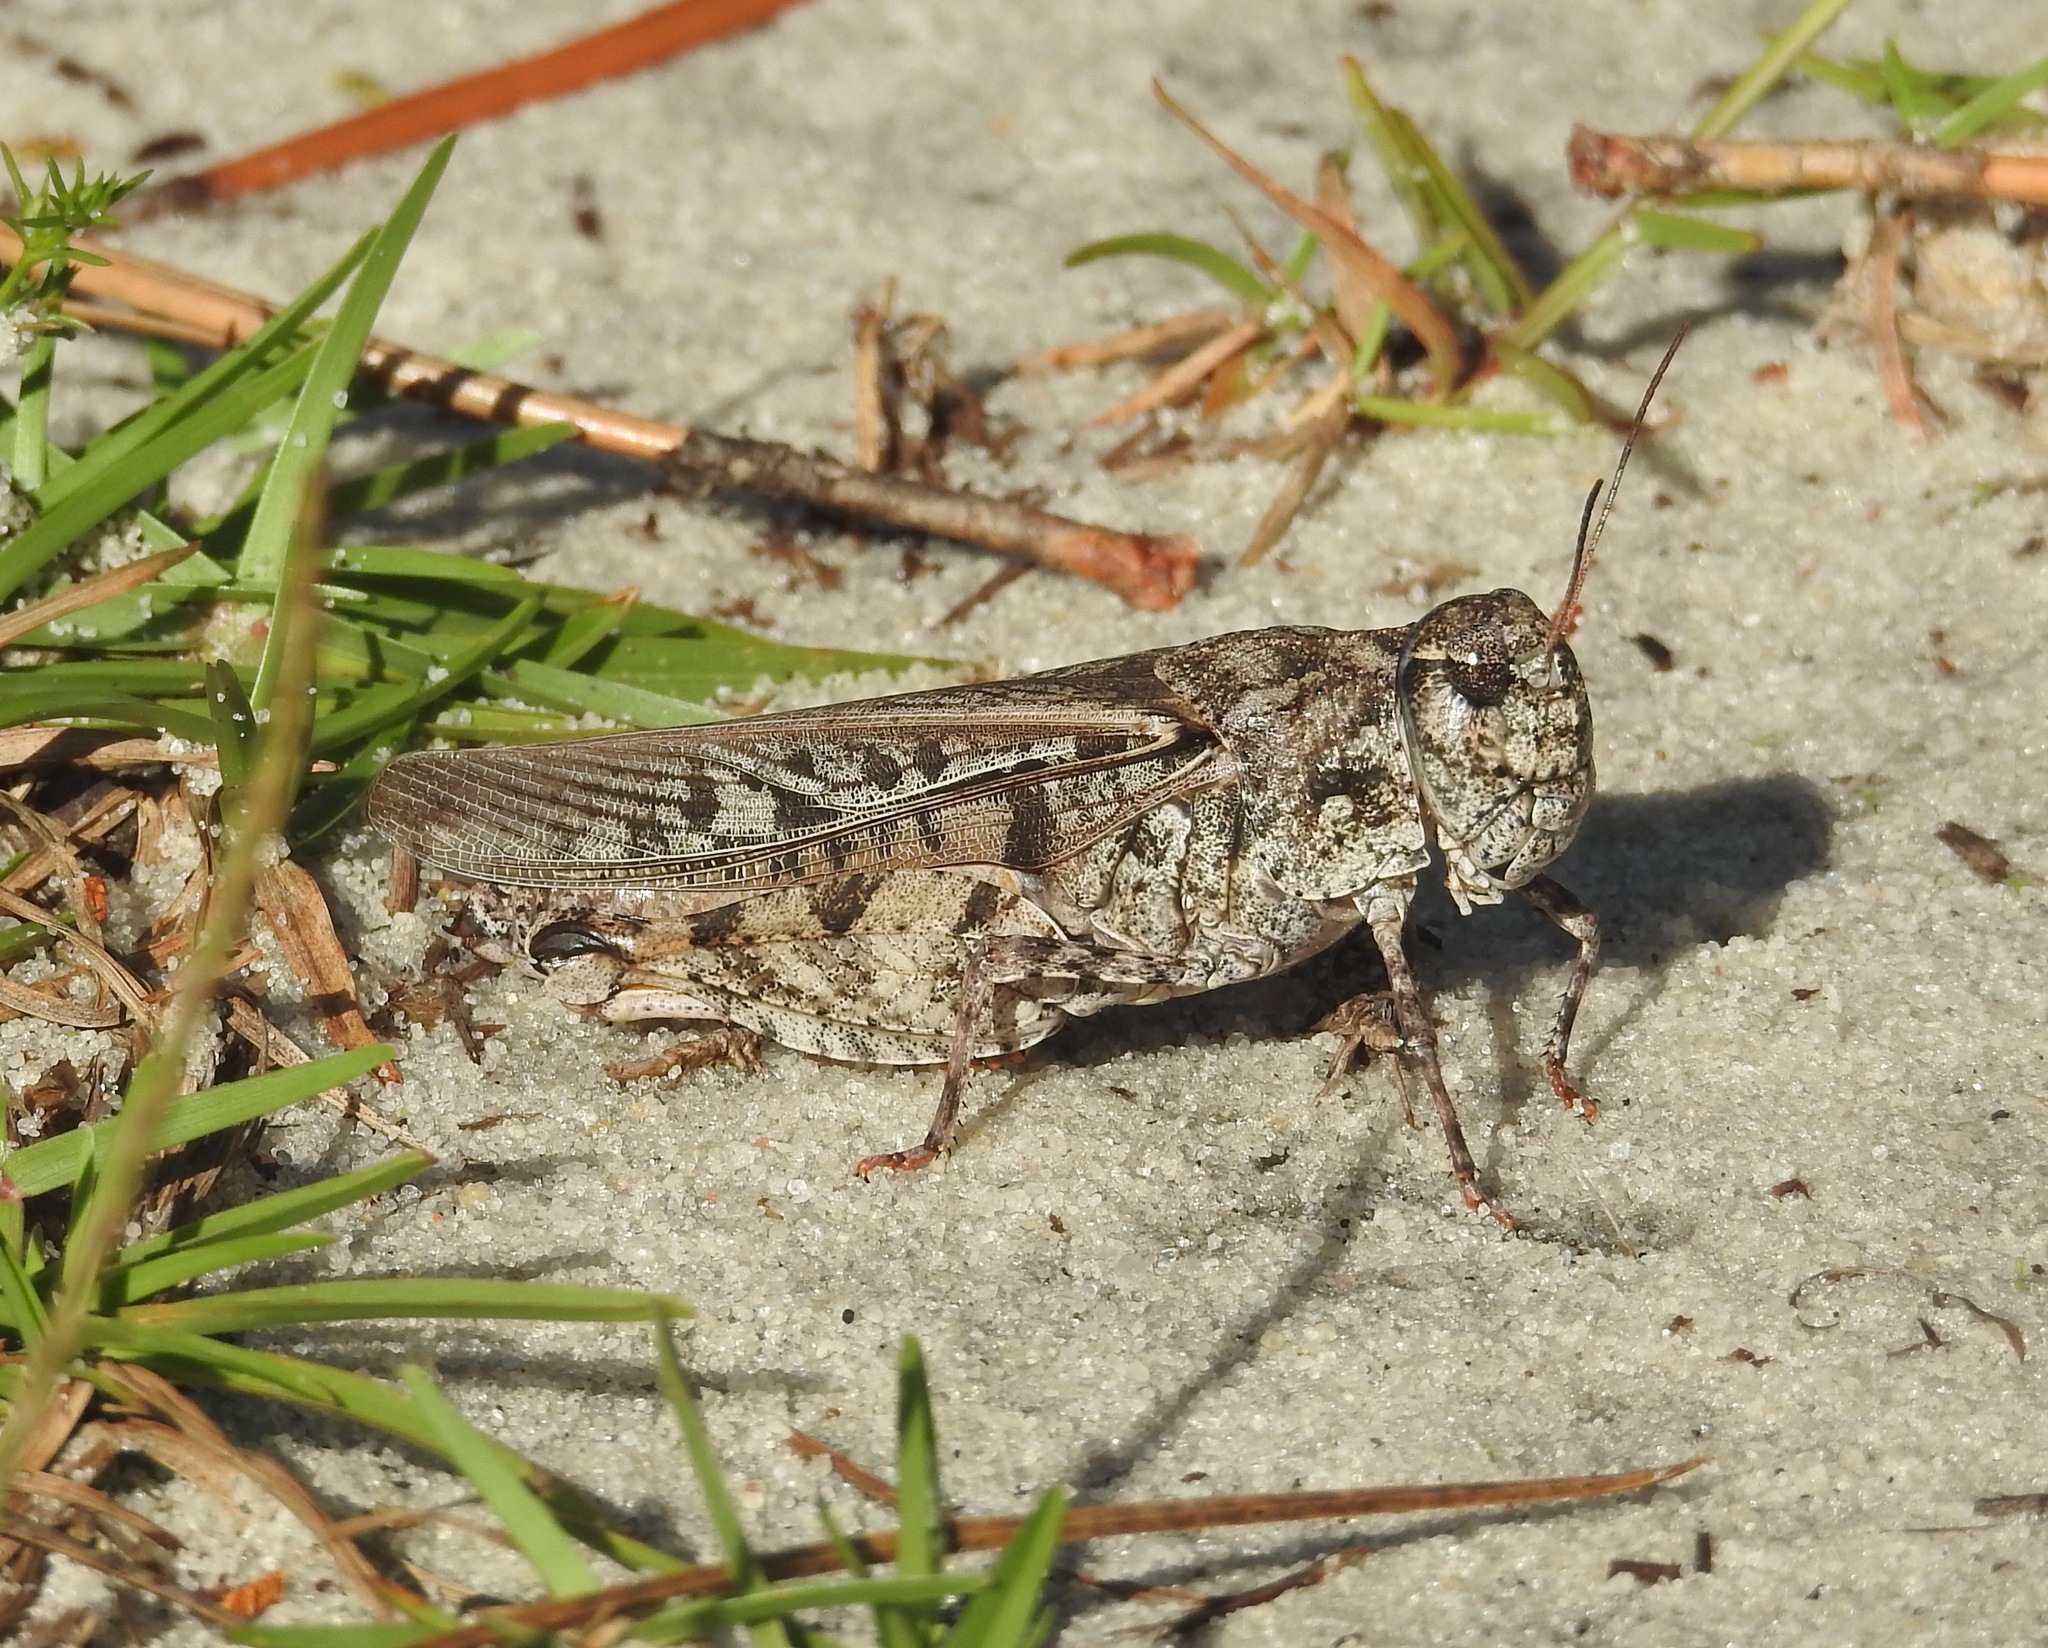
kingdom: Animalia
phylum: Arthropoda
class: Insecta
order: Orthoptera
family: Acrididae
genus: Pardalophora
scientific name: Pardalophora phoenicoptera
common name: Orange-winged grasshopper
